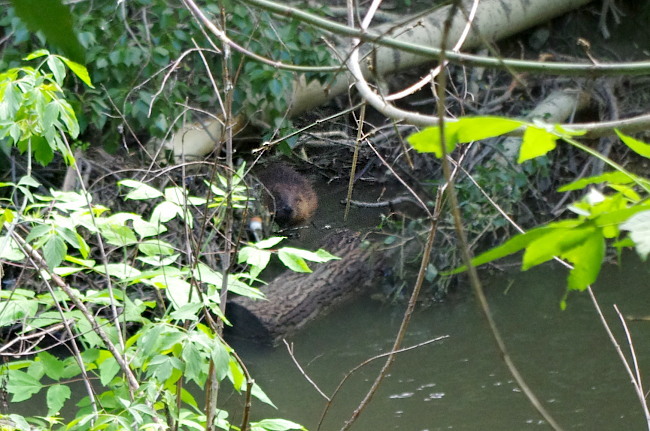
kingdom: Animalia
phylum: Chordata
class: Mammalia
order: Rodentia
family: Castoridae
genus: Castor
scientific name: Castor fiber
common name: Eurasian beaver
